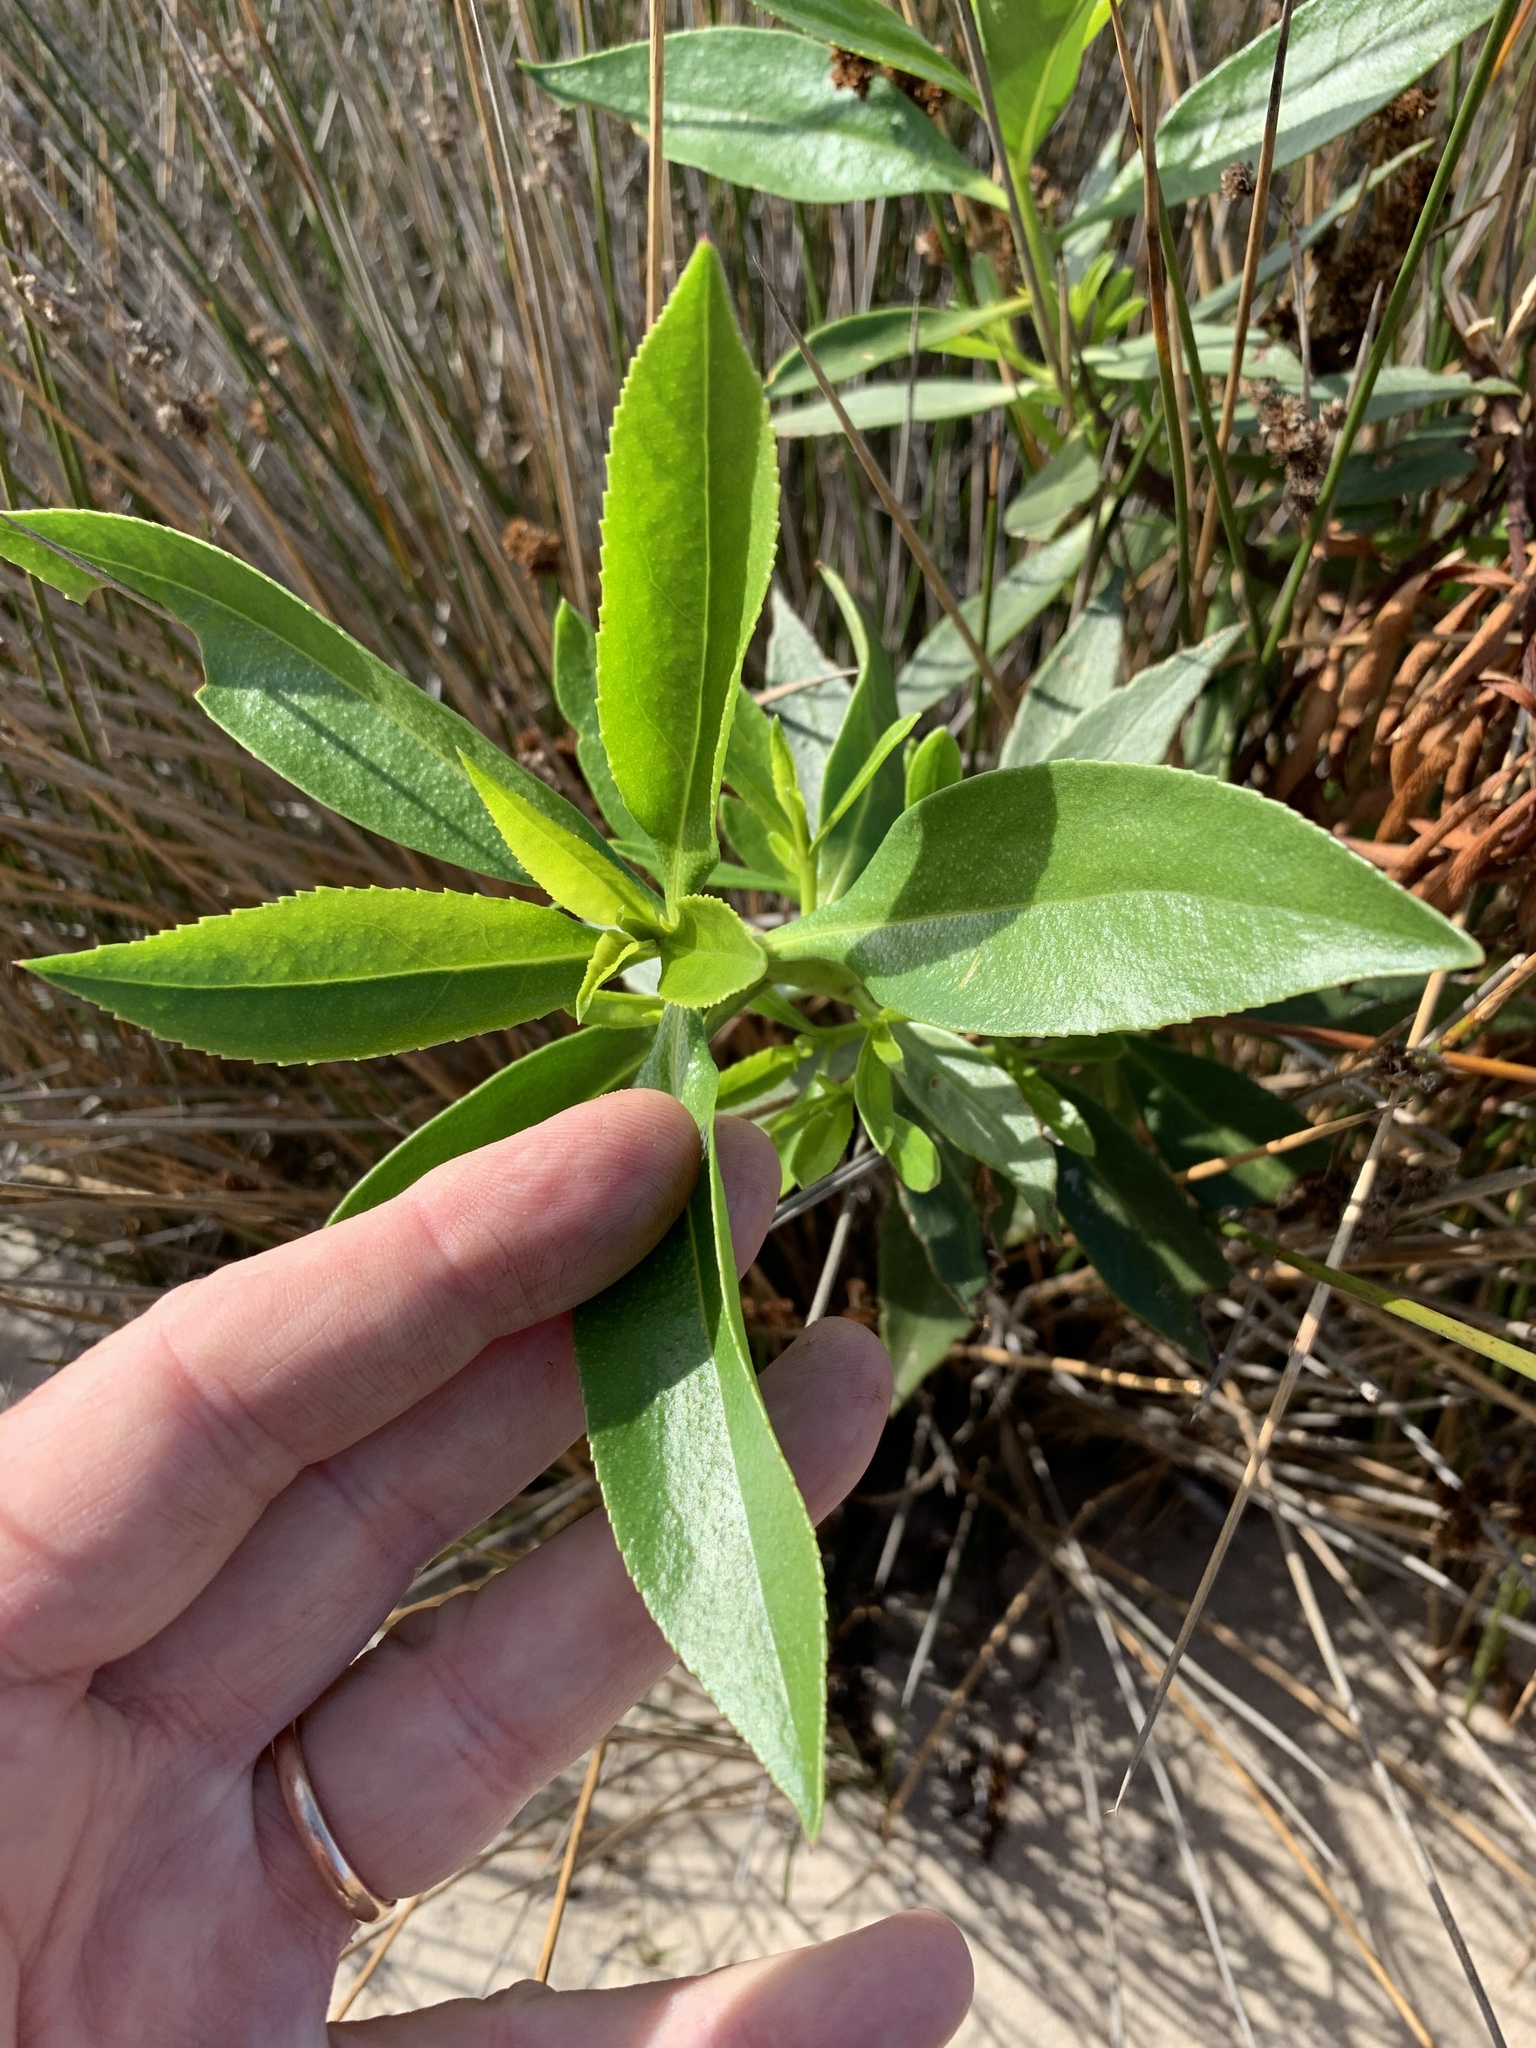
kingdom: Plantae
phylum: Tracheophyta
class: Magnoliopsida
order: Lamiales
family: Scrophulariaceae
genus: Myoporum
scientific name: Myoporum insulare
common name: Common boobialla
